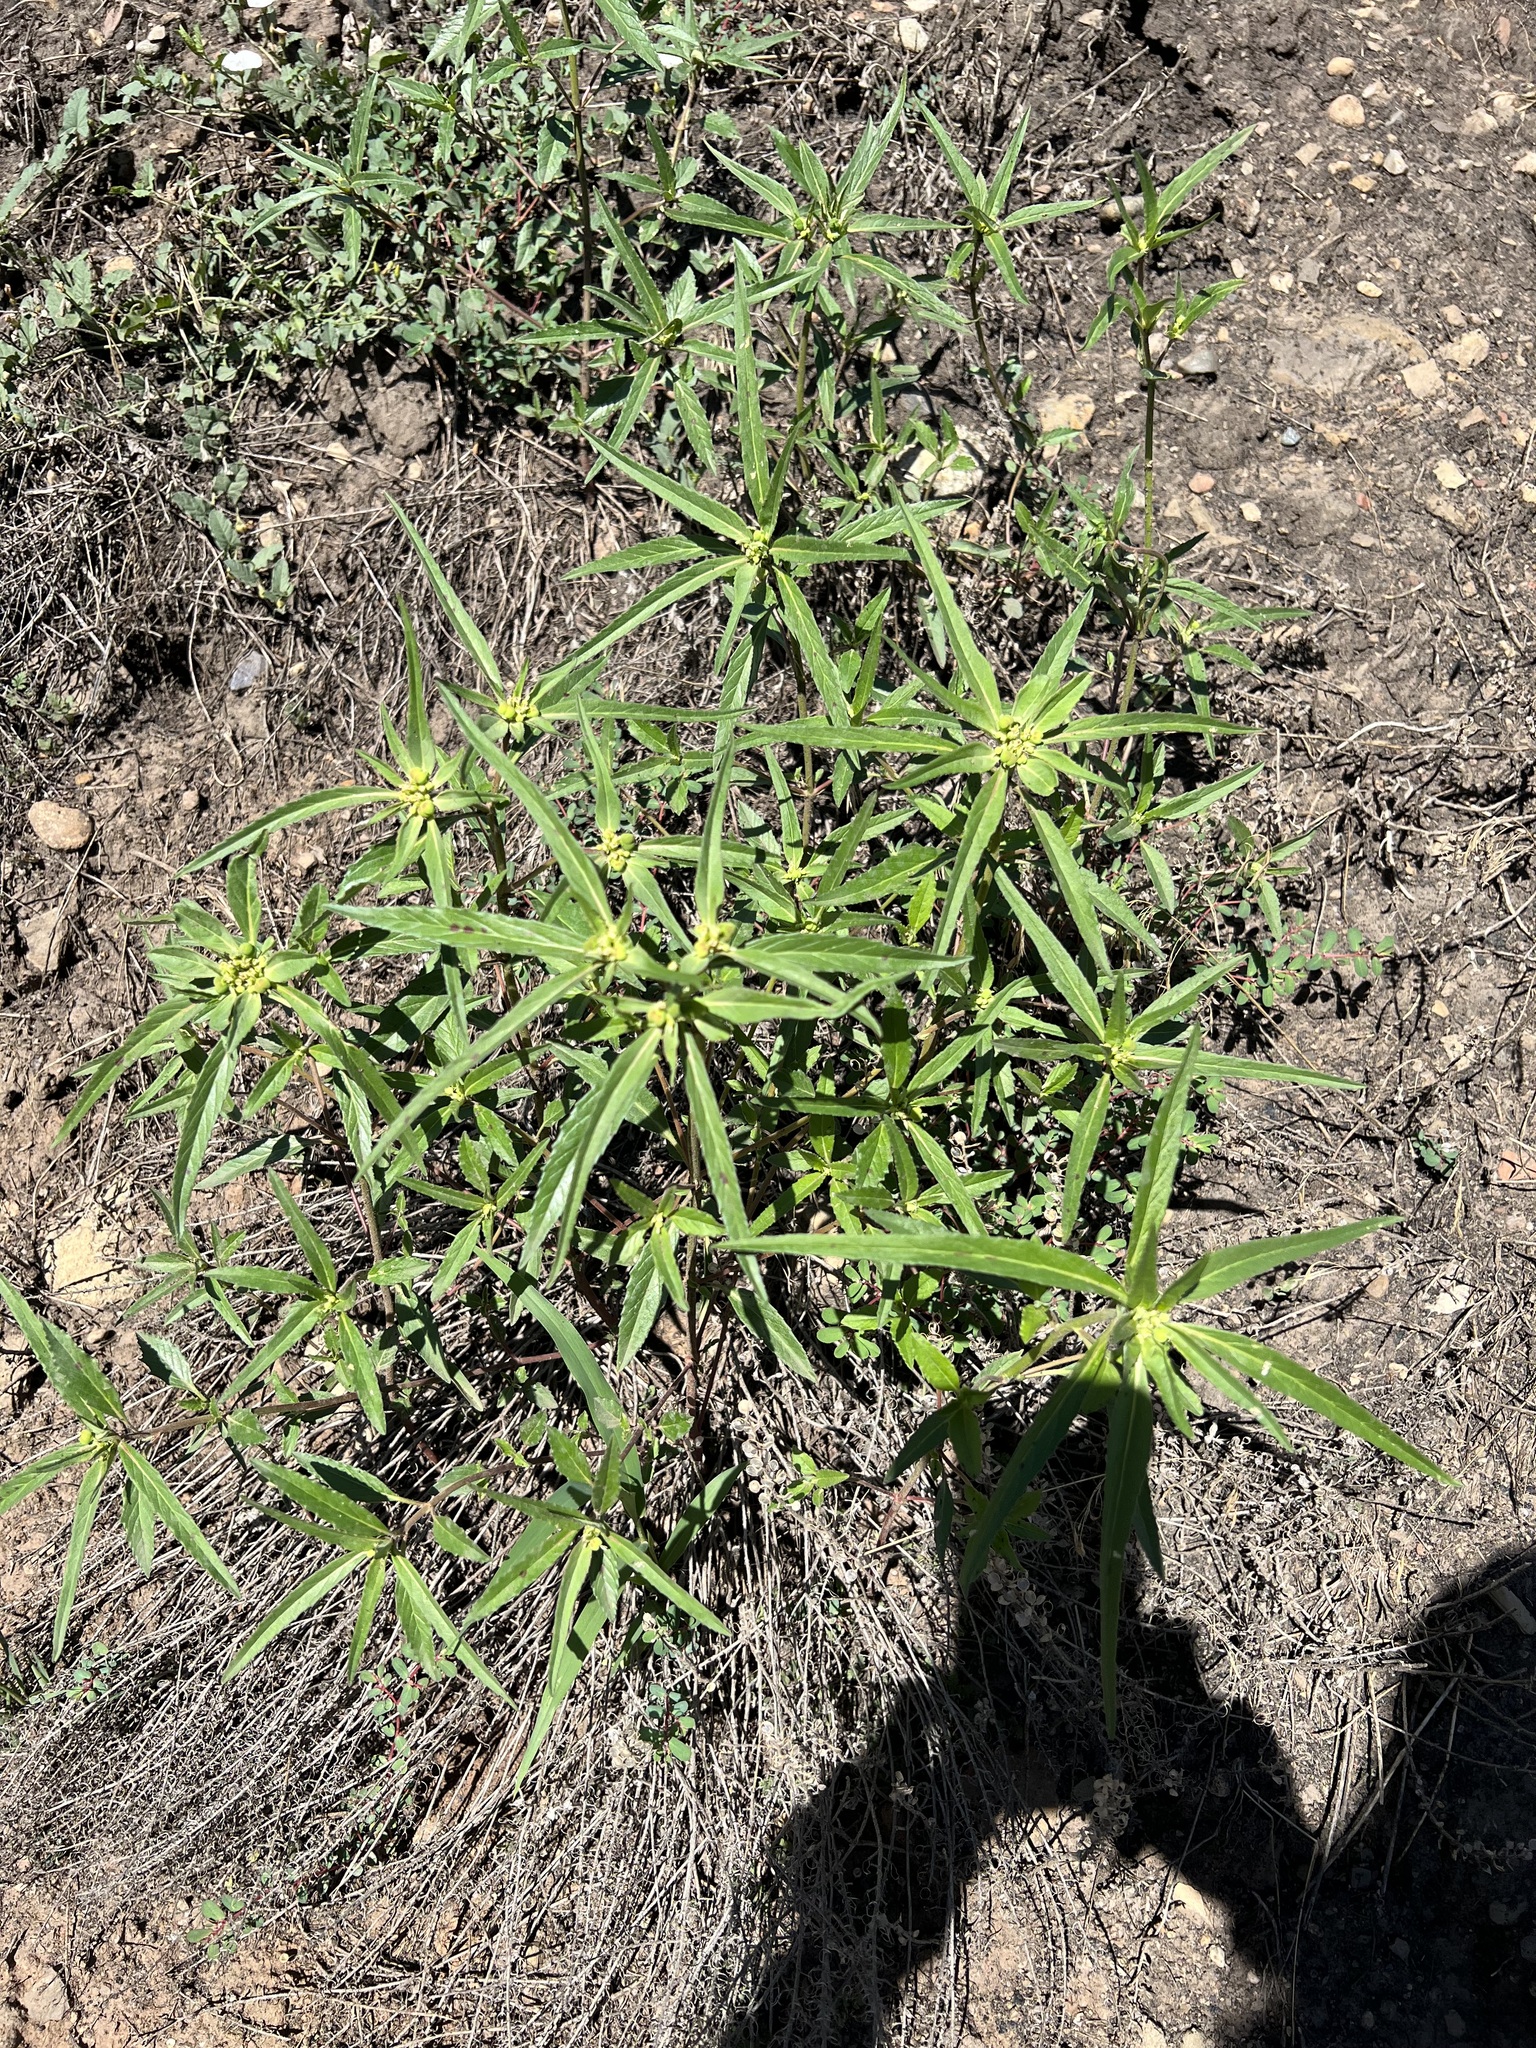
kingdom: Plantae
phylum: Tracheophyta
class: Magnoliopsida
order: Malpighiales
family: Euphorbiaceae
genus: Euphorbia
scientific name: Euphorbia davidii
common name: David's spurge
